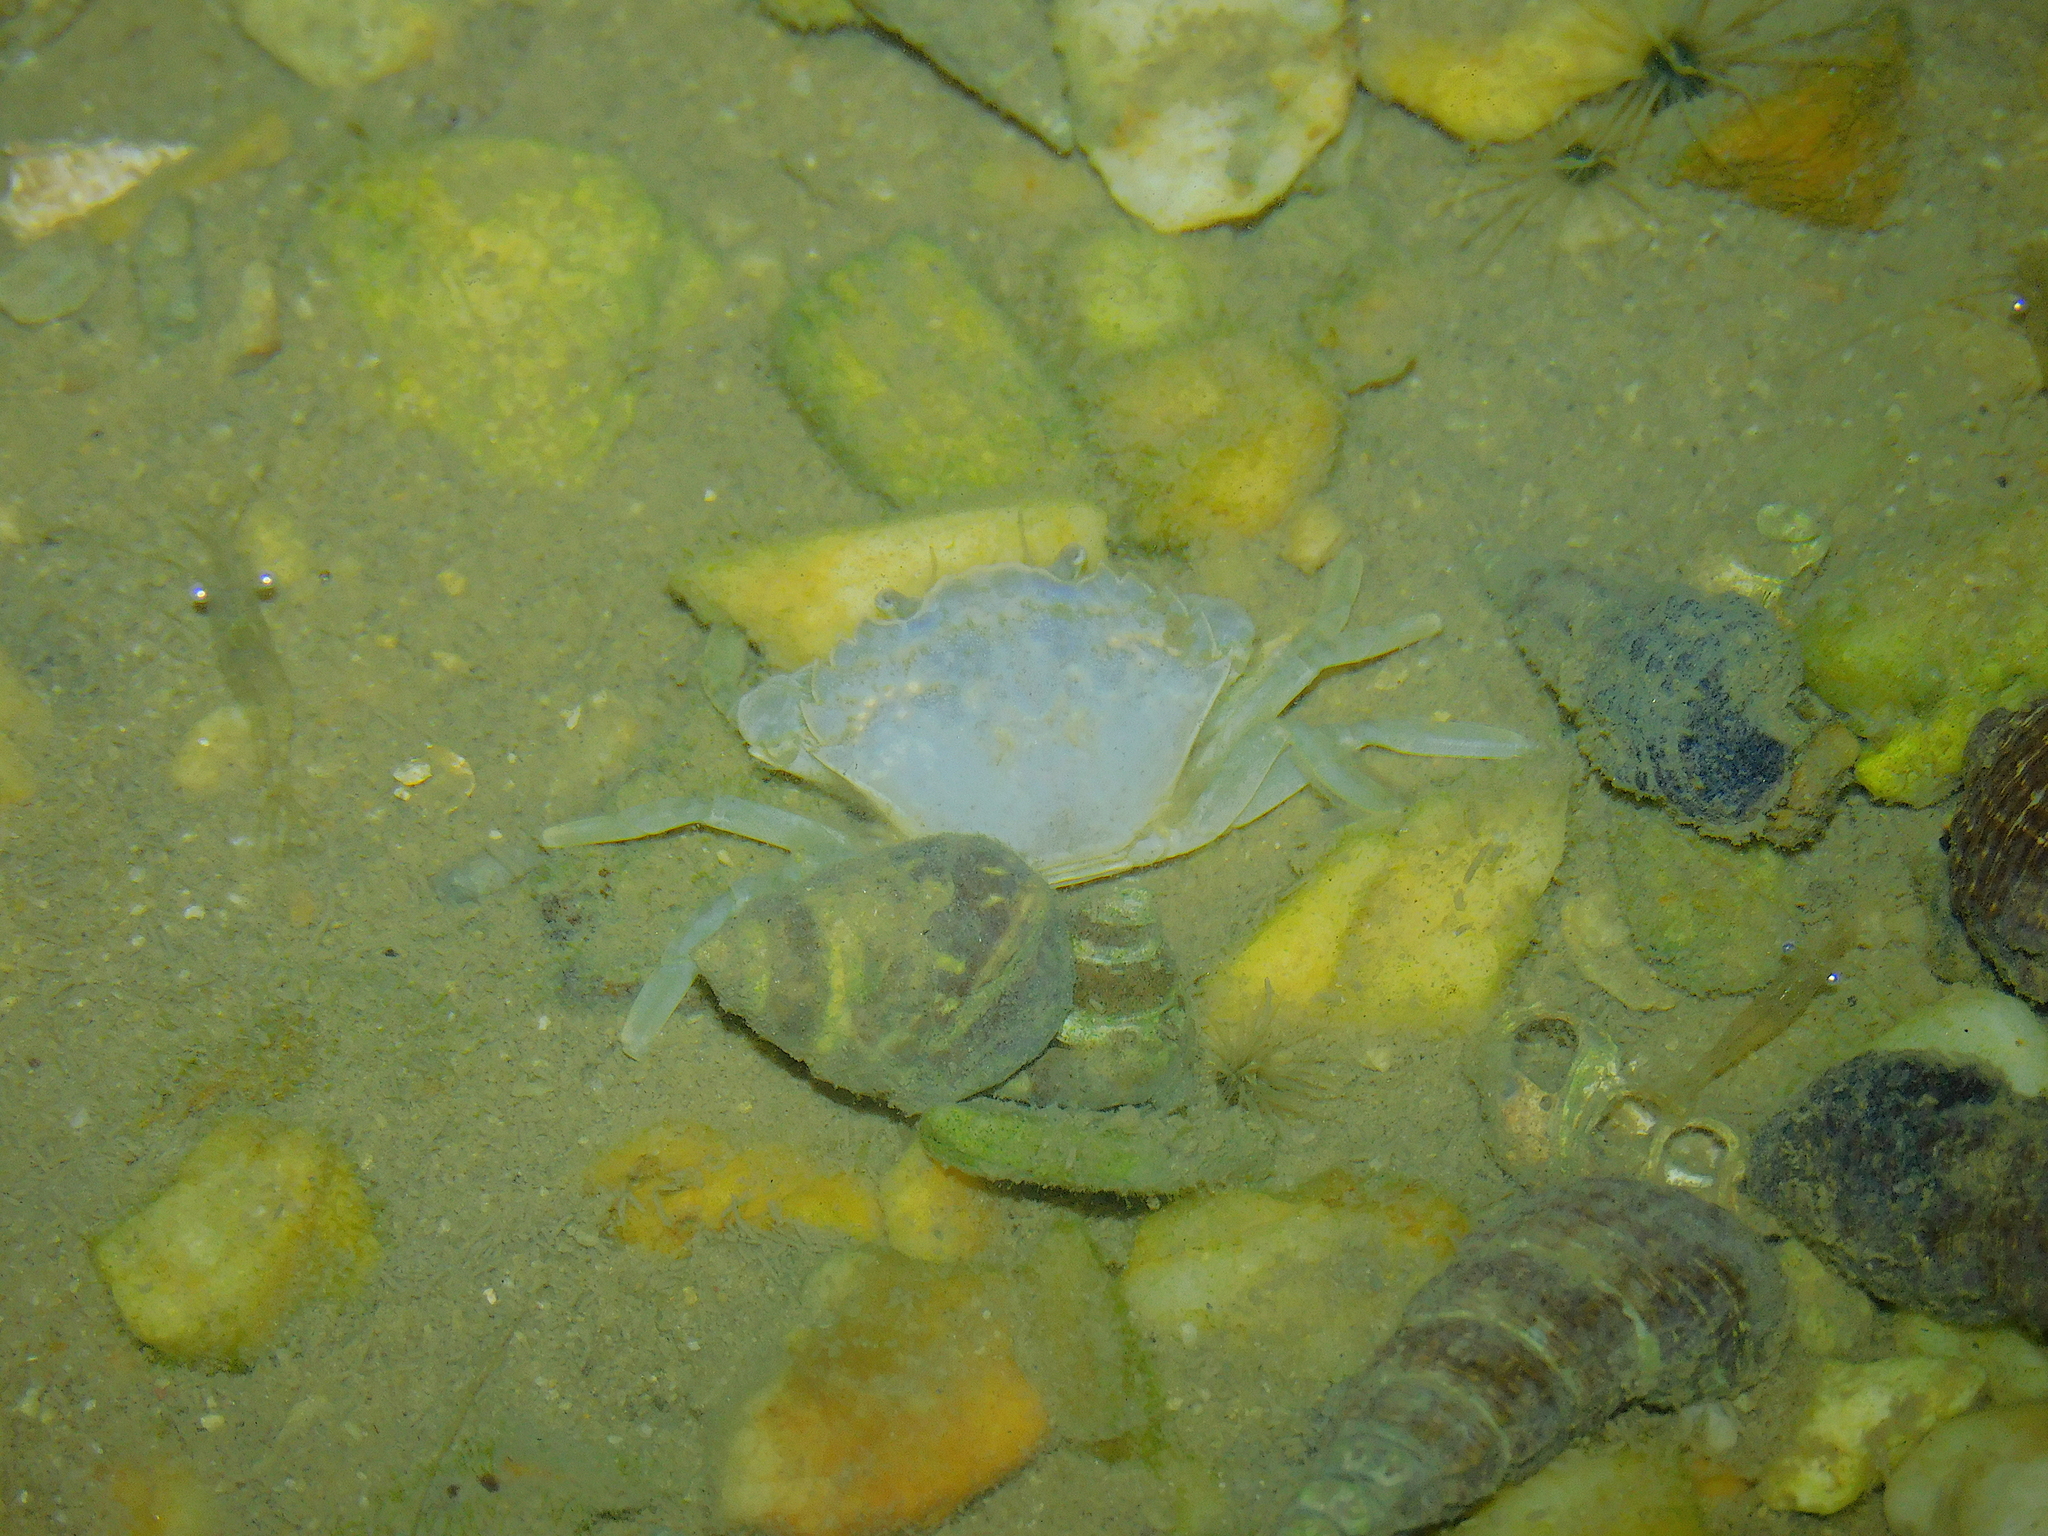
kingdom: Animalia
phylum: Arthropoda
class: Malacostraca
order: Decapoda
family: Carcinidae
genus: Carcinus
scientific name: Carcinus maenas
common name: European green crab
